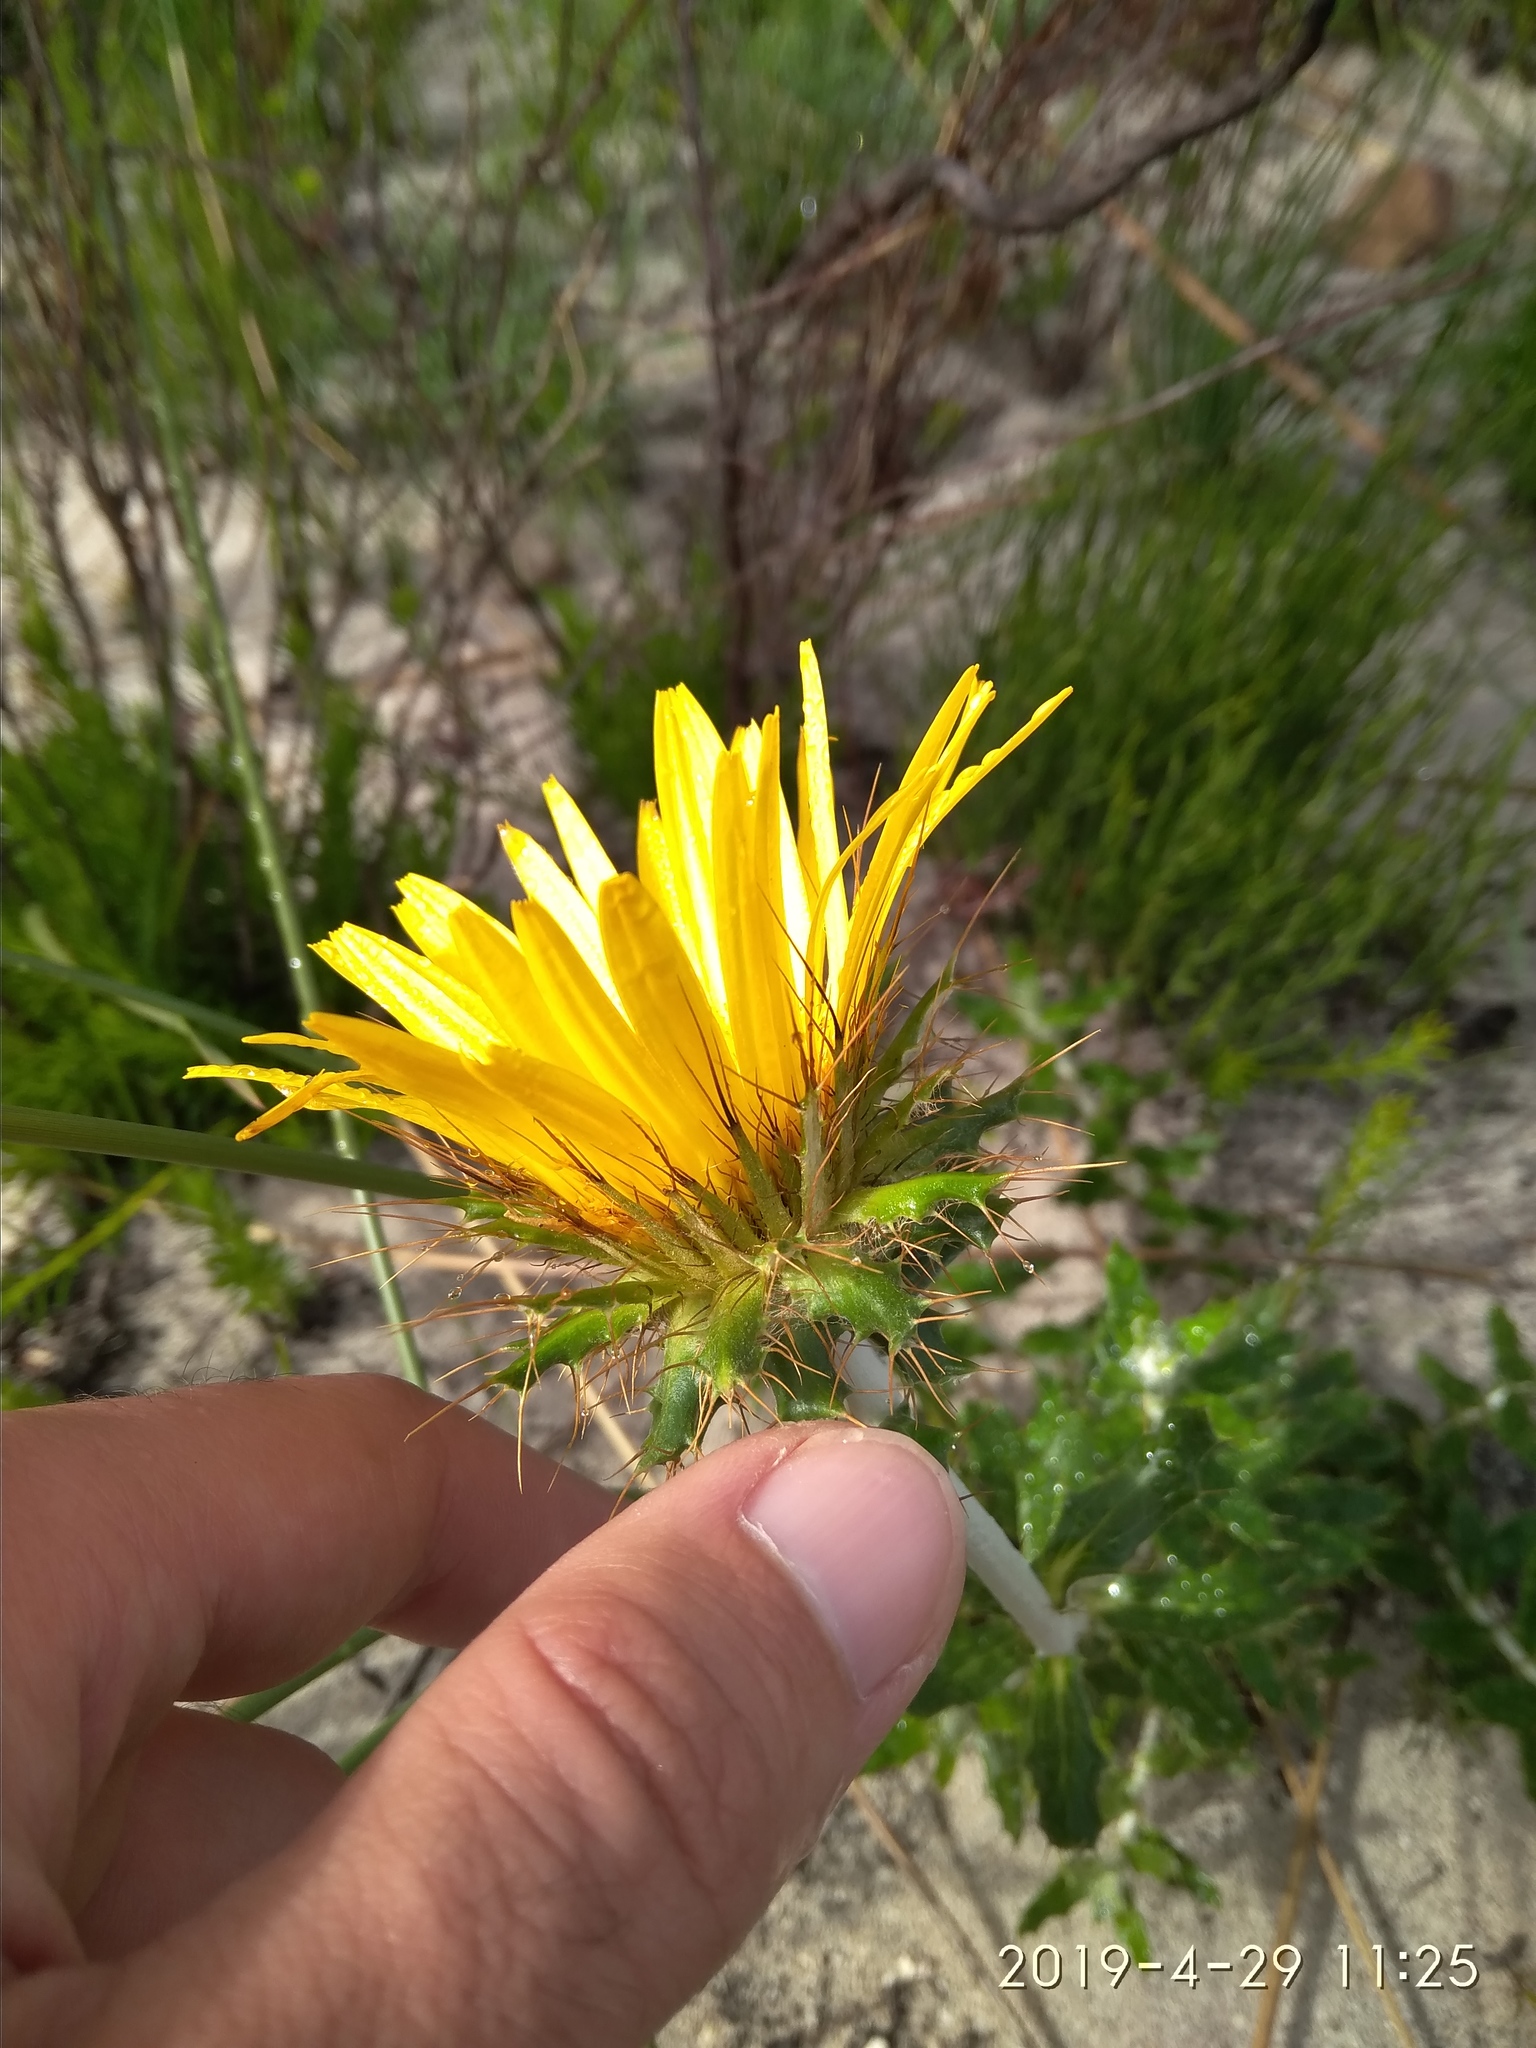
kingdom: Plantae
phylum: Tracheophyta
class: Magnoliopsida
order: Asterales
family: Asteraceae
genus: Berkheya
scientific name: Berkheya barbata
